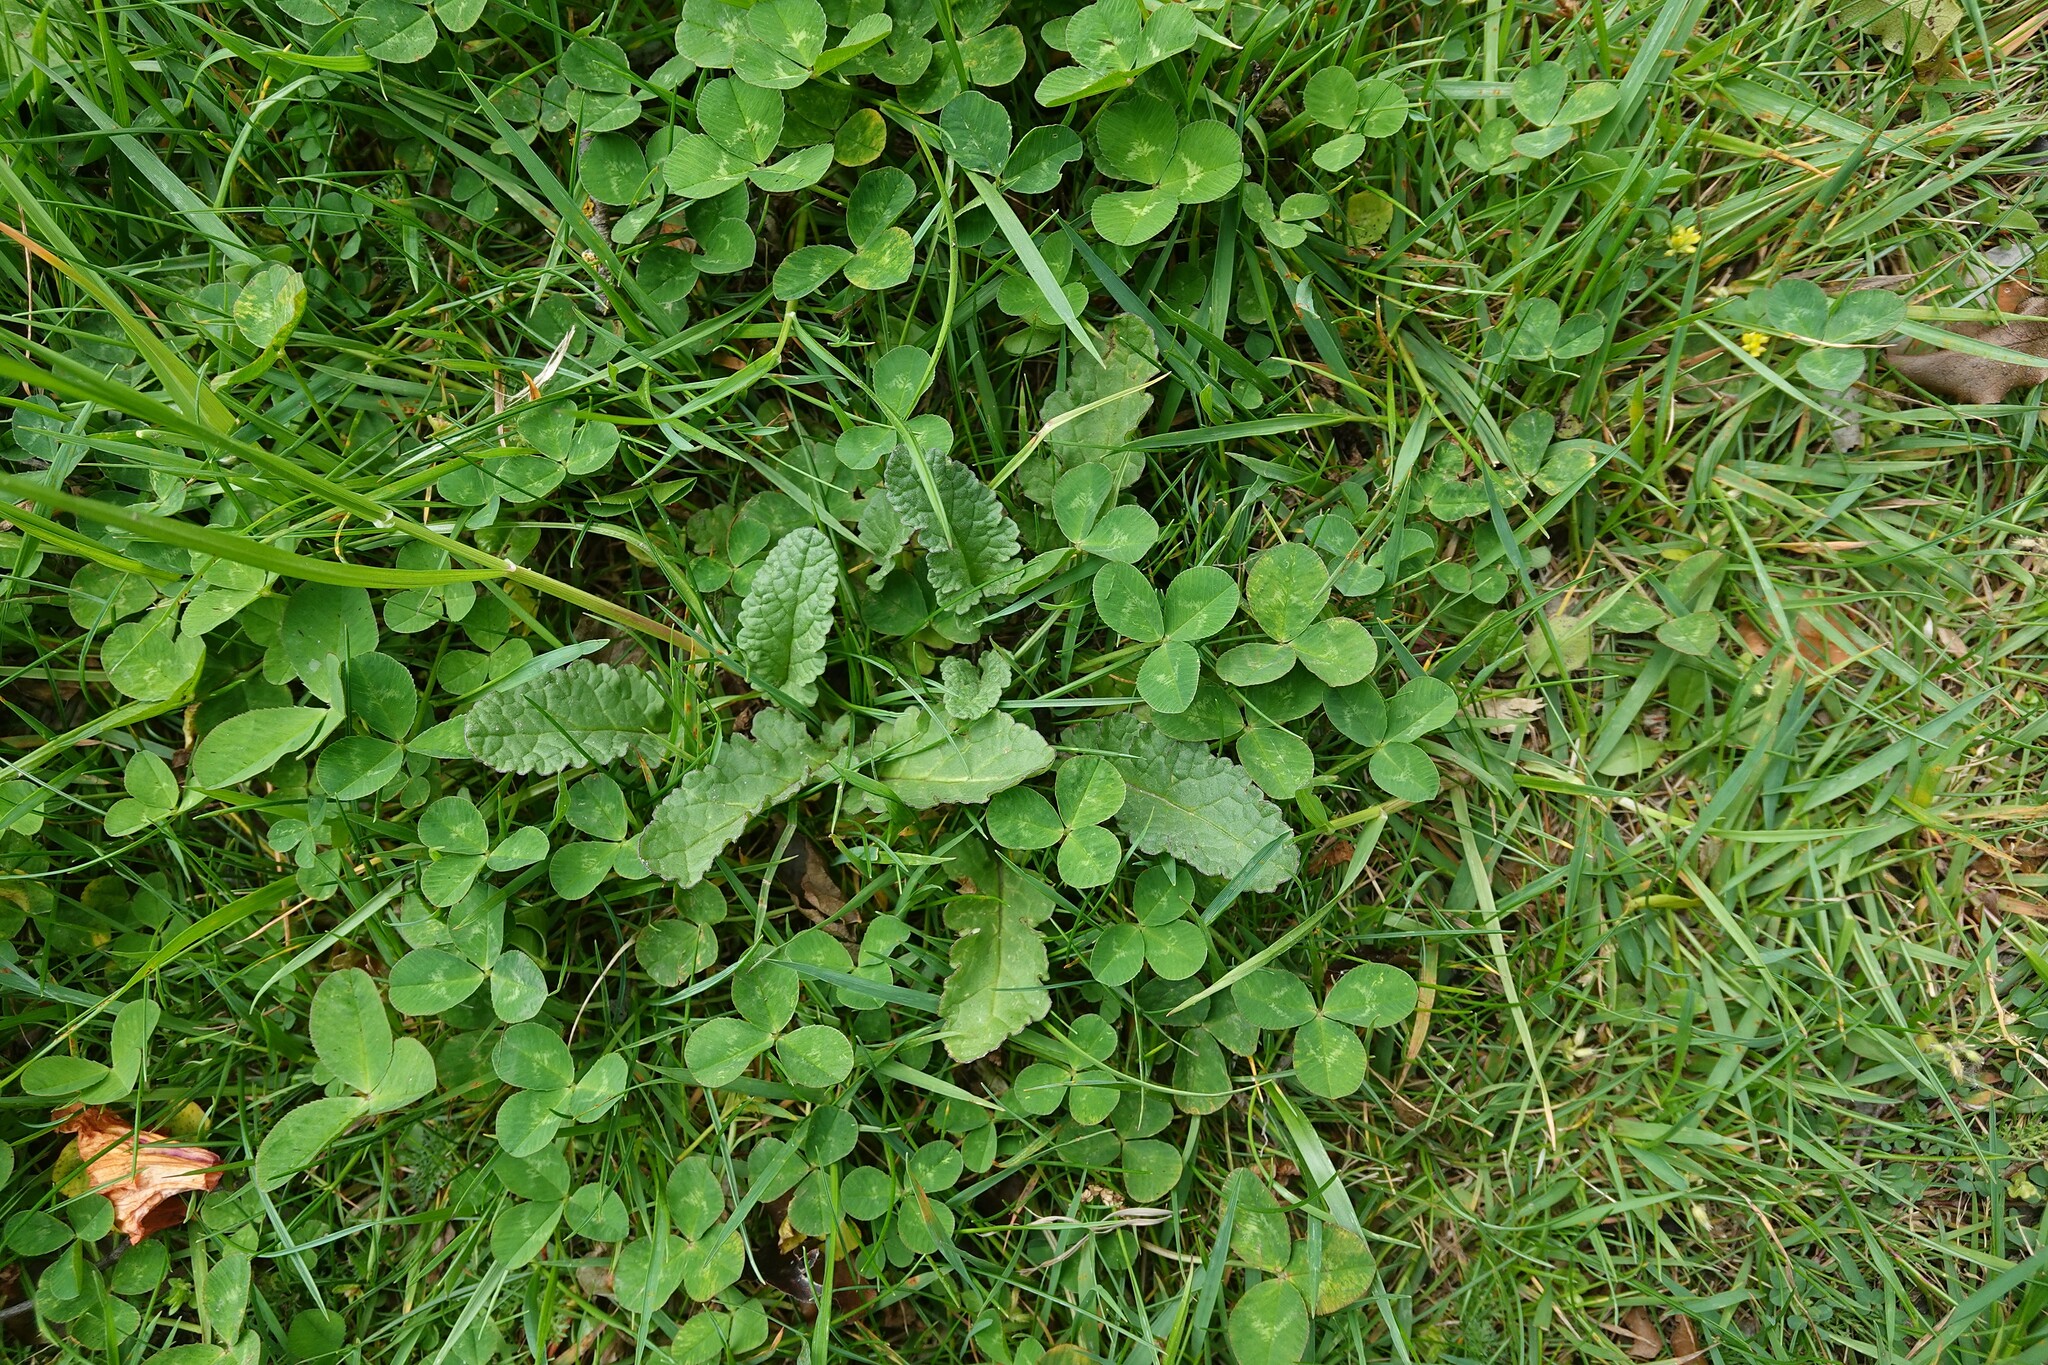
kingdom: Plantae
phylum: Tracheophyta
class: Magnoliopsida
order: Asterales
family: Asteraceae
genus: Jacobaea
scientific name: Jacobaea vulgaris
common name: Stinking willie
